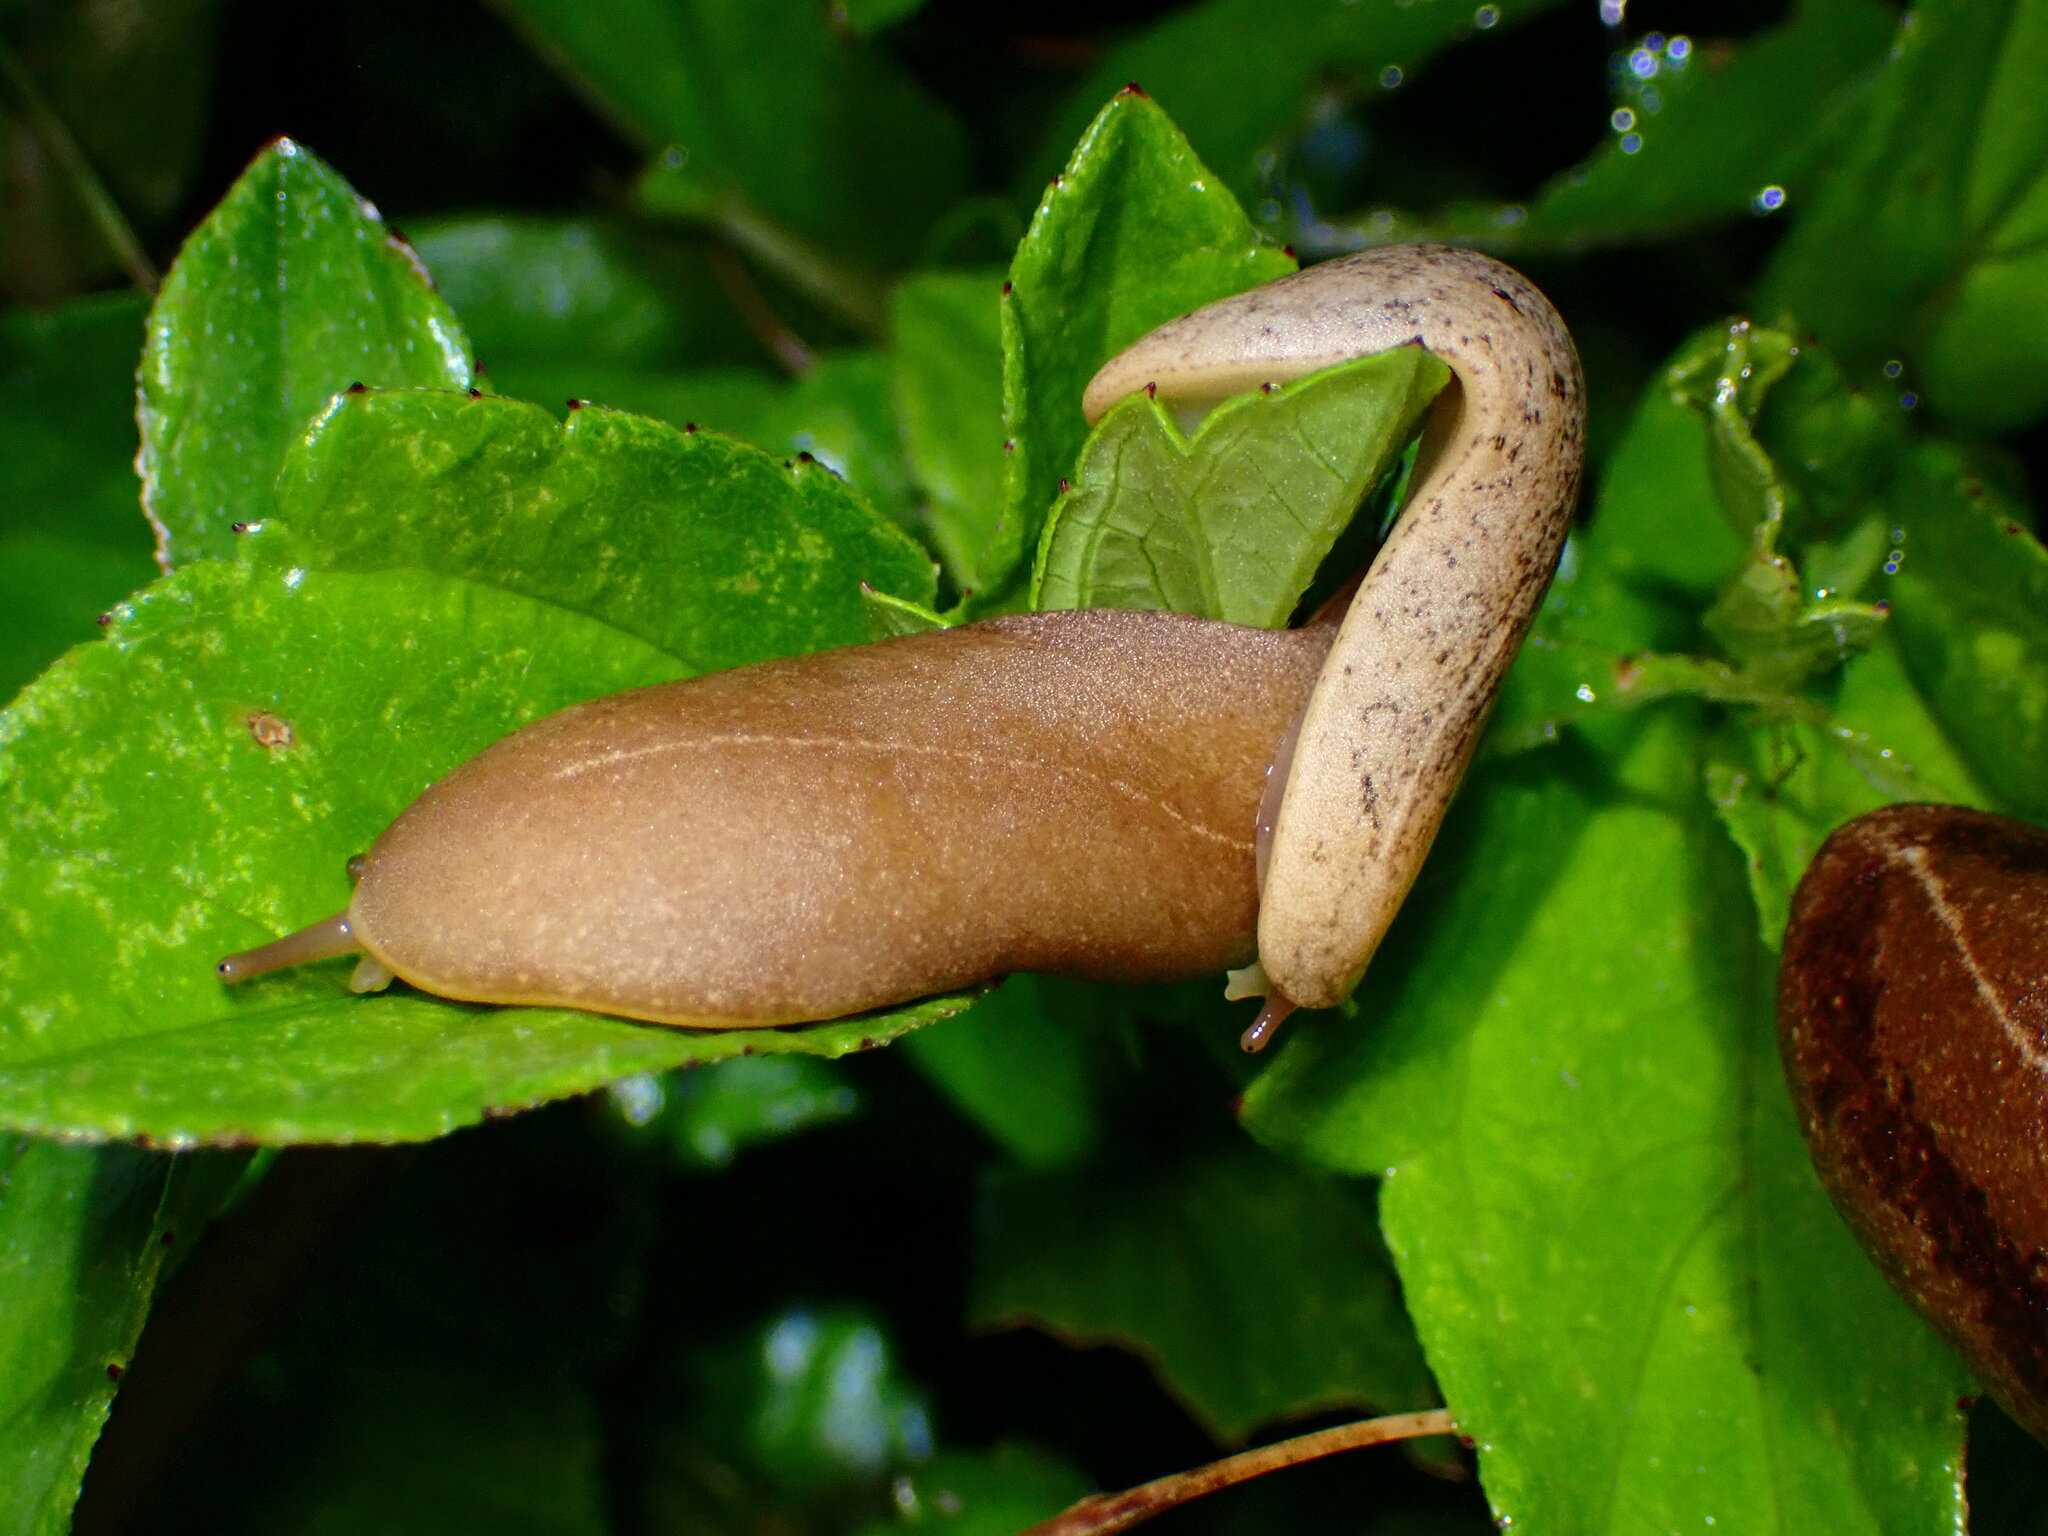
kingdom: Animalia
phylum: Mollusca
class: Gastropoda
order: Systellommatophora
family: Veronicellidae
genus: Veronicella
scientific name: Veronicella cubensis
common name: Two striped slug
